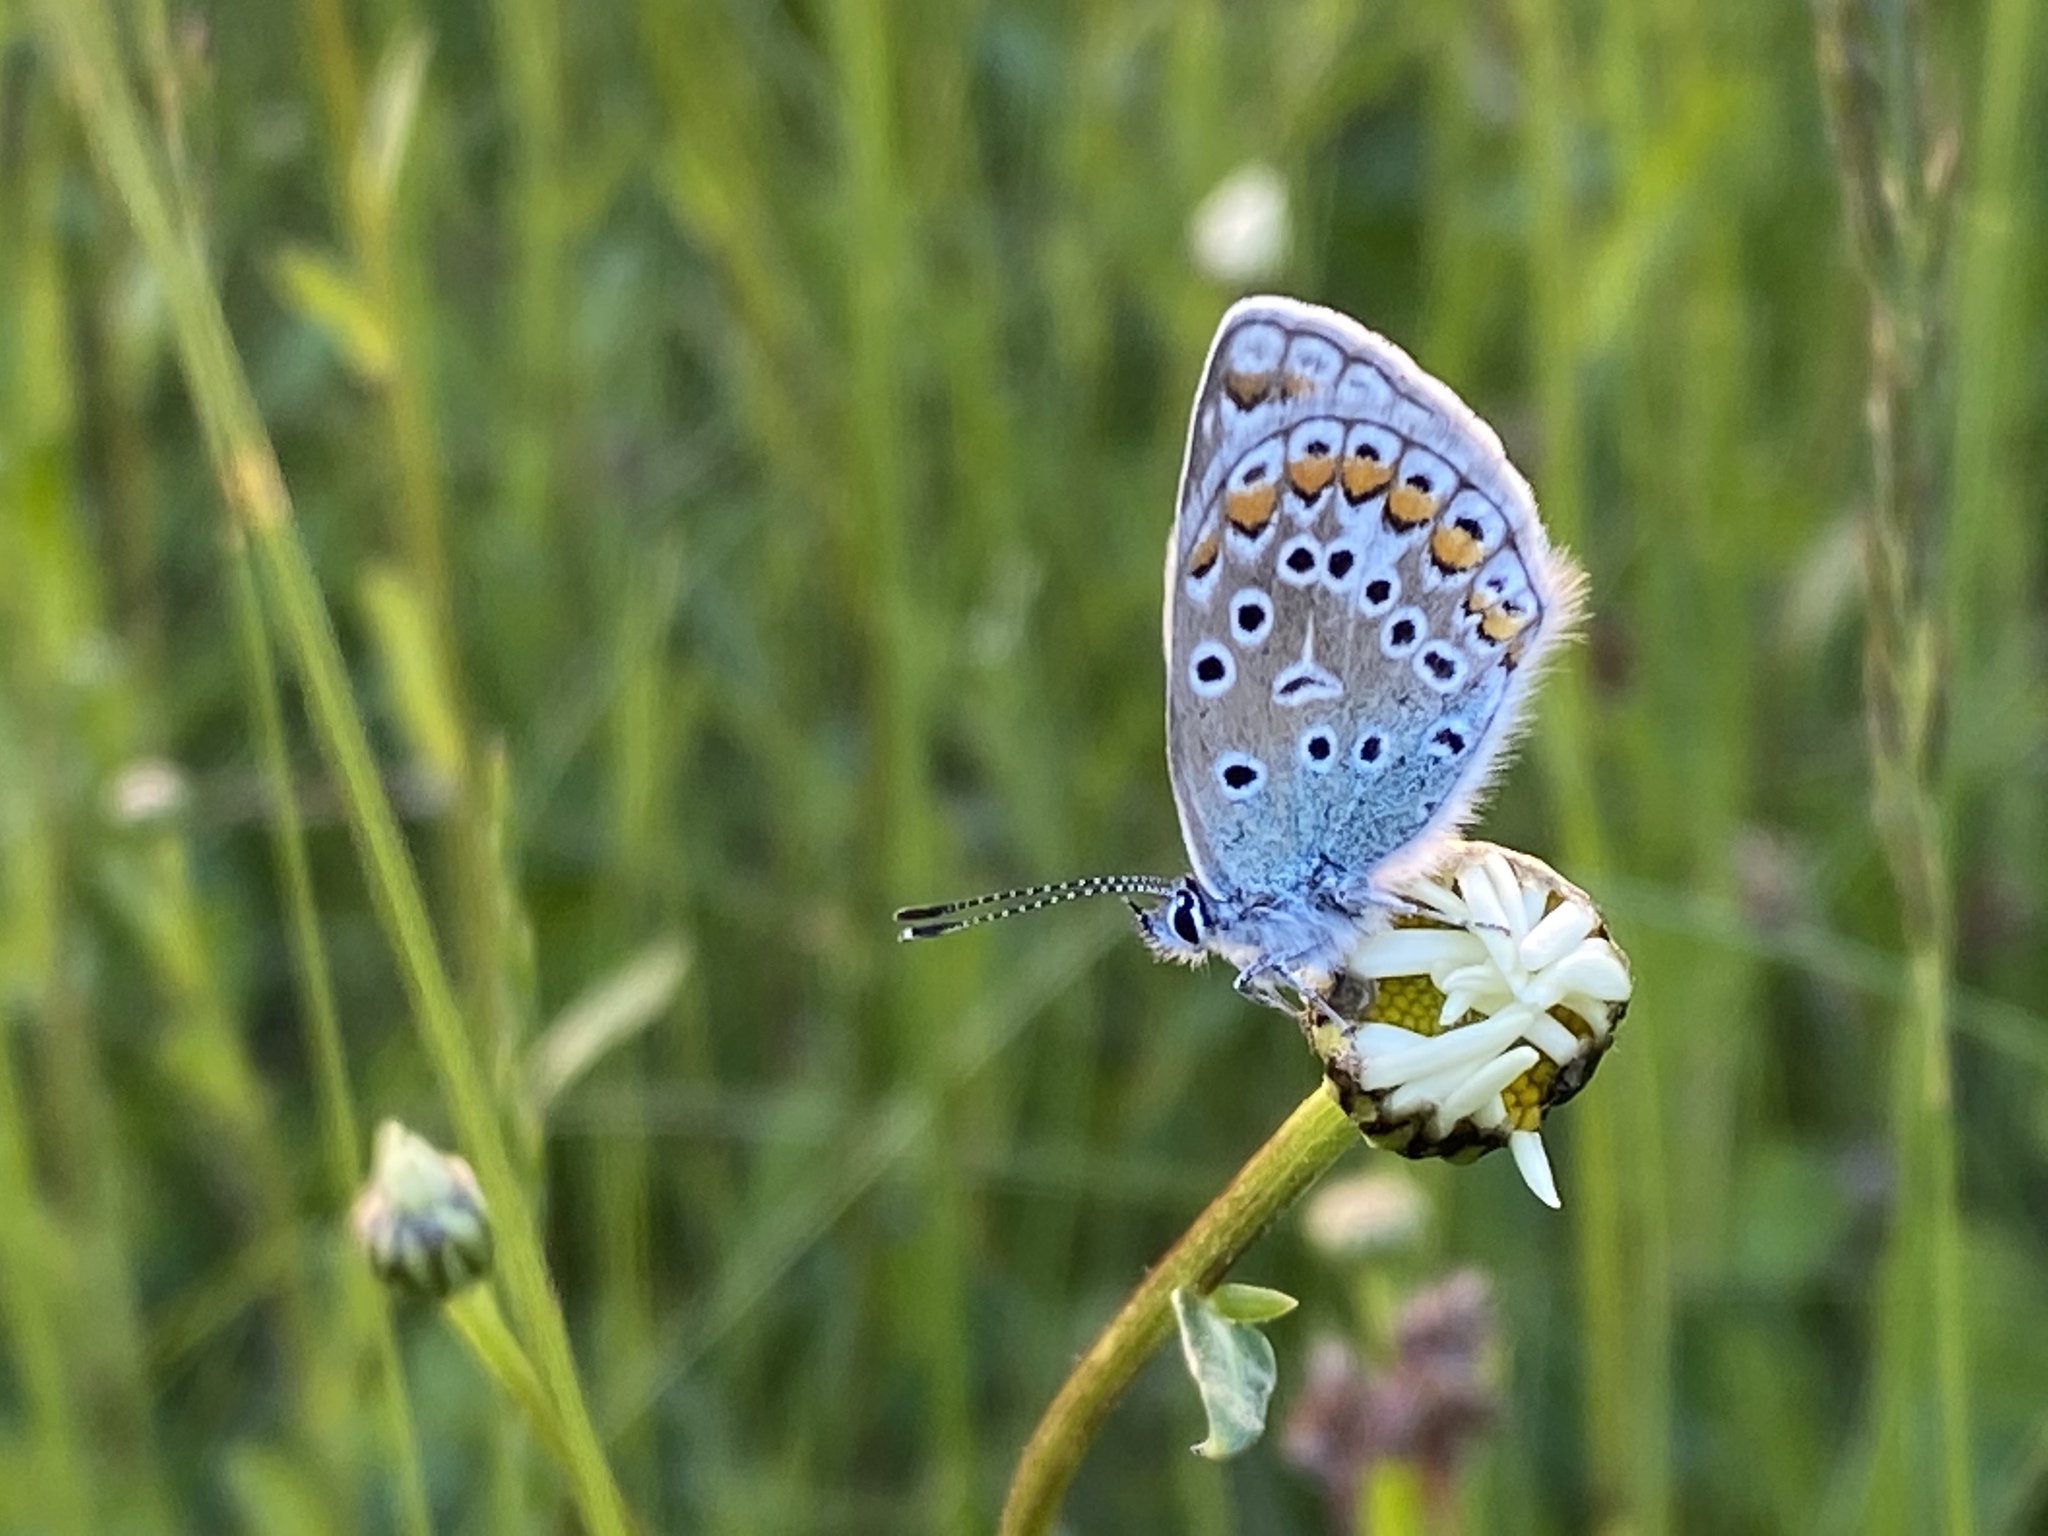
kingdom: Animalia
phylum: Arthropoda
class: Insecta
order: Lepidoptera
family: Lycaenidae
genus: Polyommatus
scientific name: Polyommatus icarus
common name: Common blue
